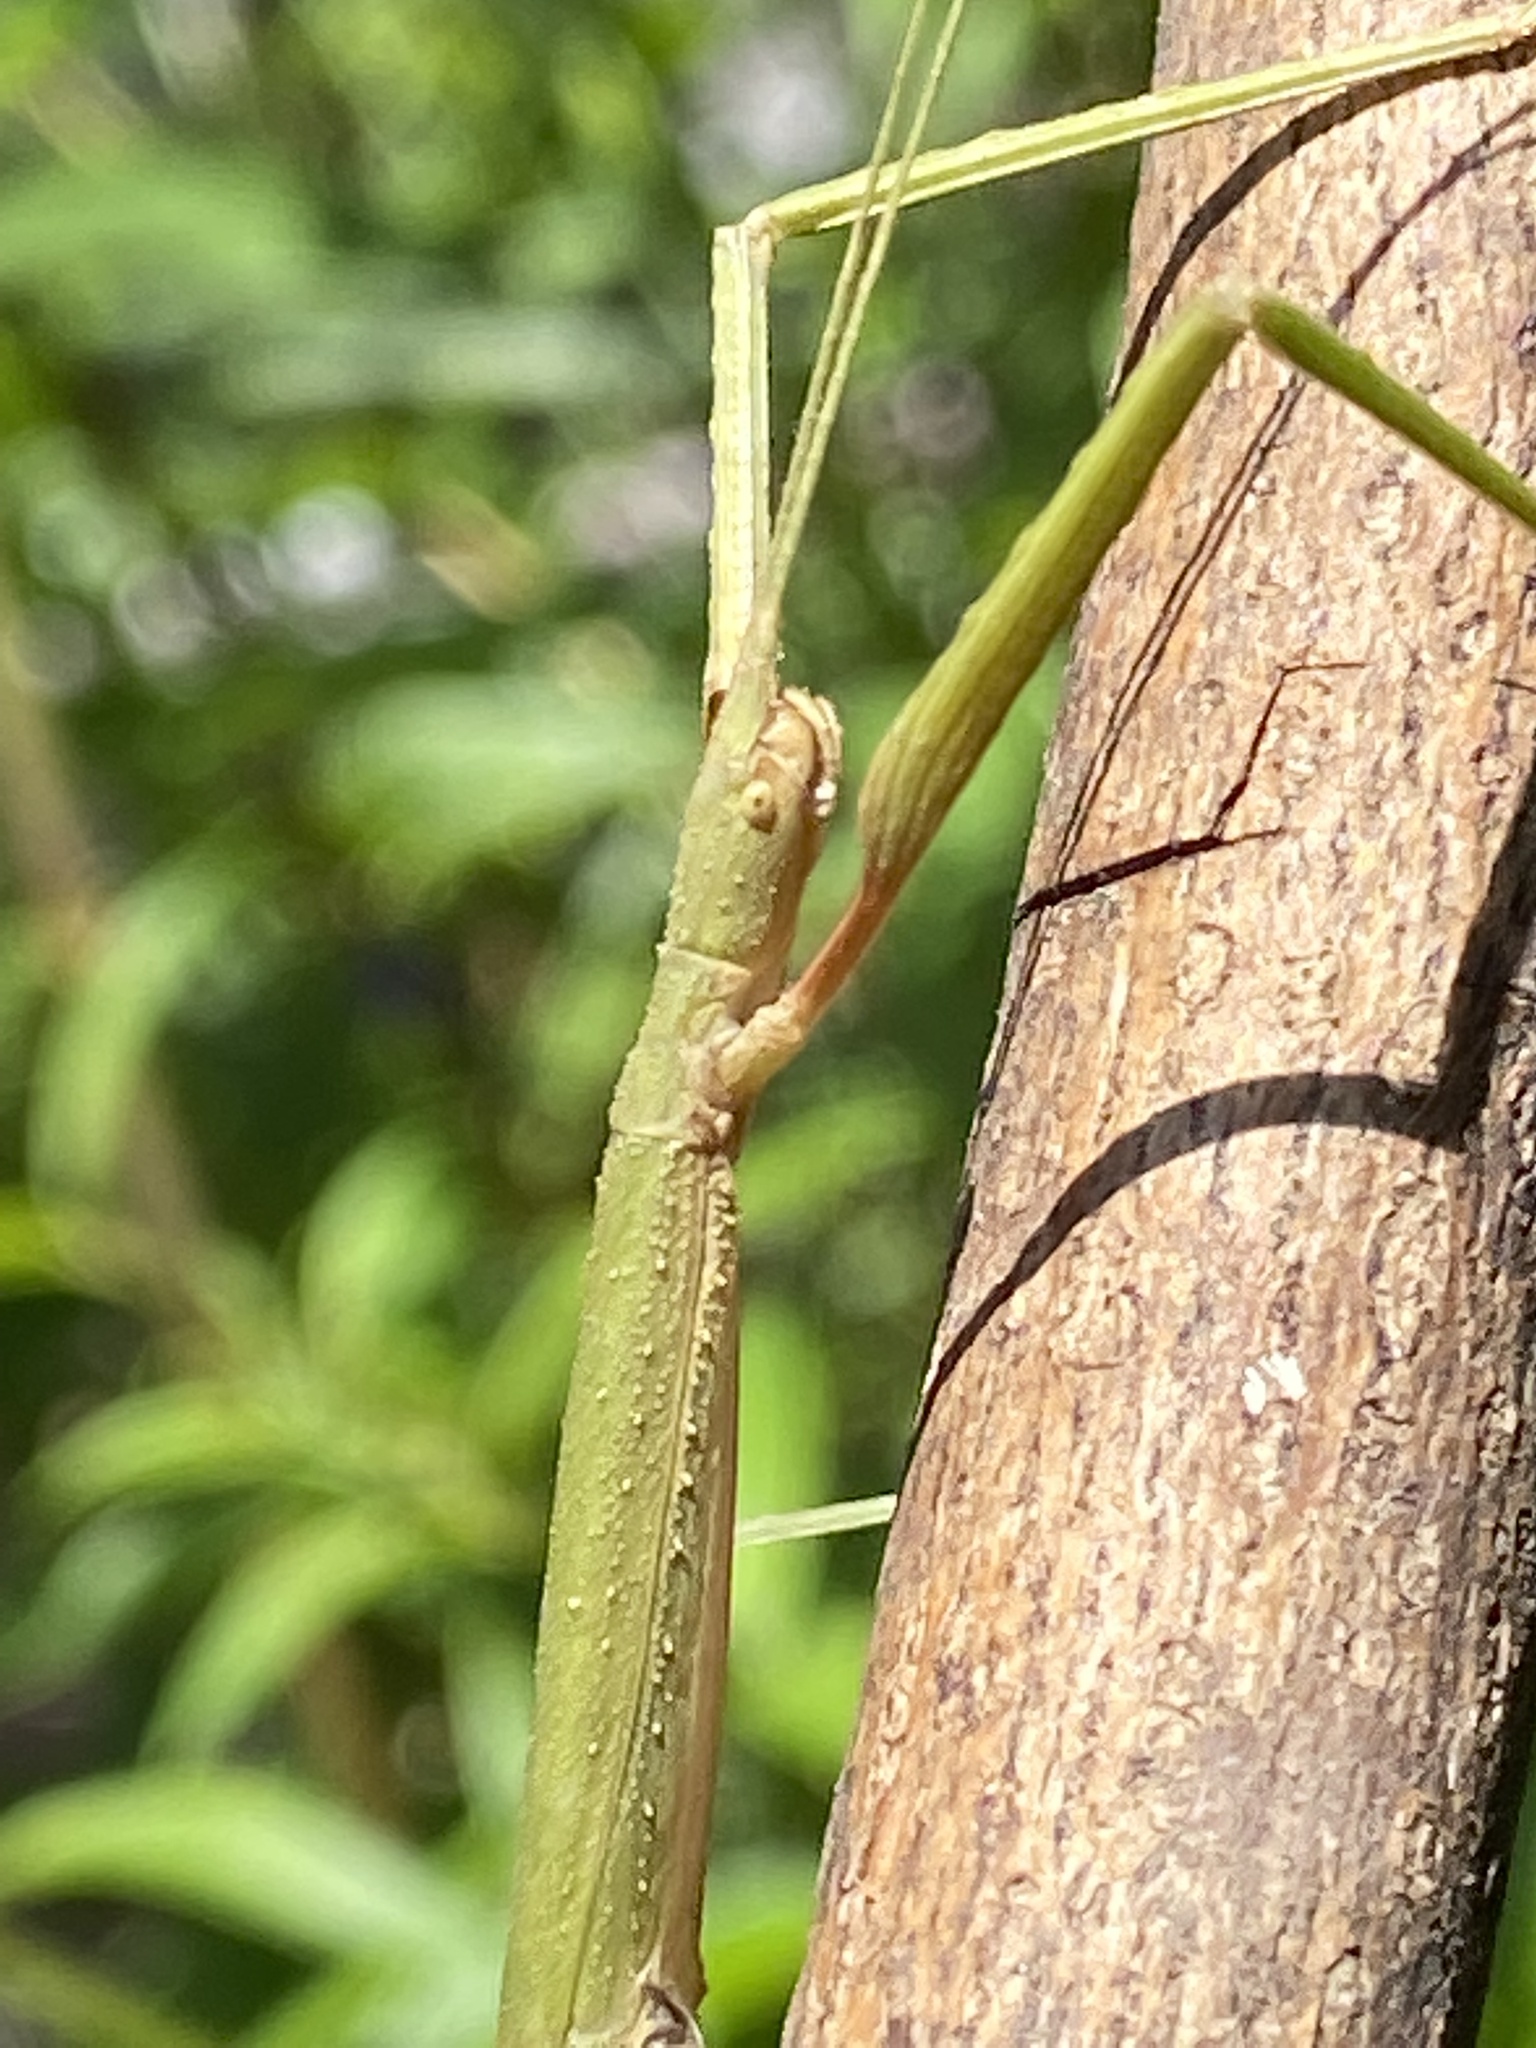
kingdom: Animalia
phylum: Arthropoda
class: Insecta
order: Phasmida
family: Lonchodidae
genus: Carausius
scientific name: Carausius morosus
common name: Indian stick insect
